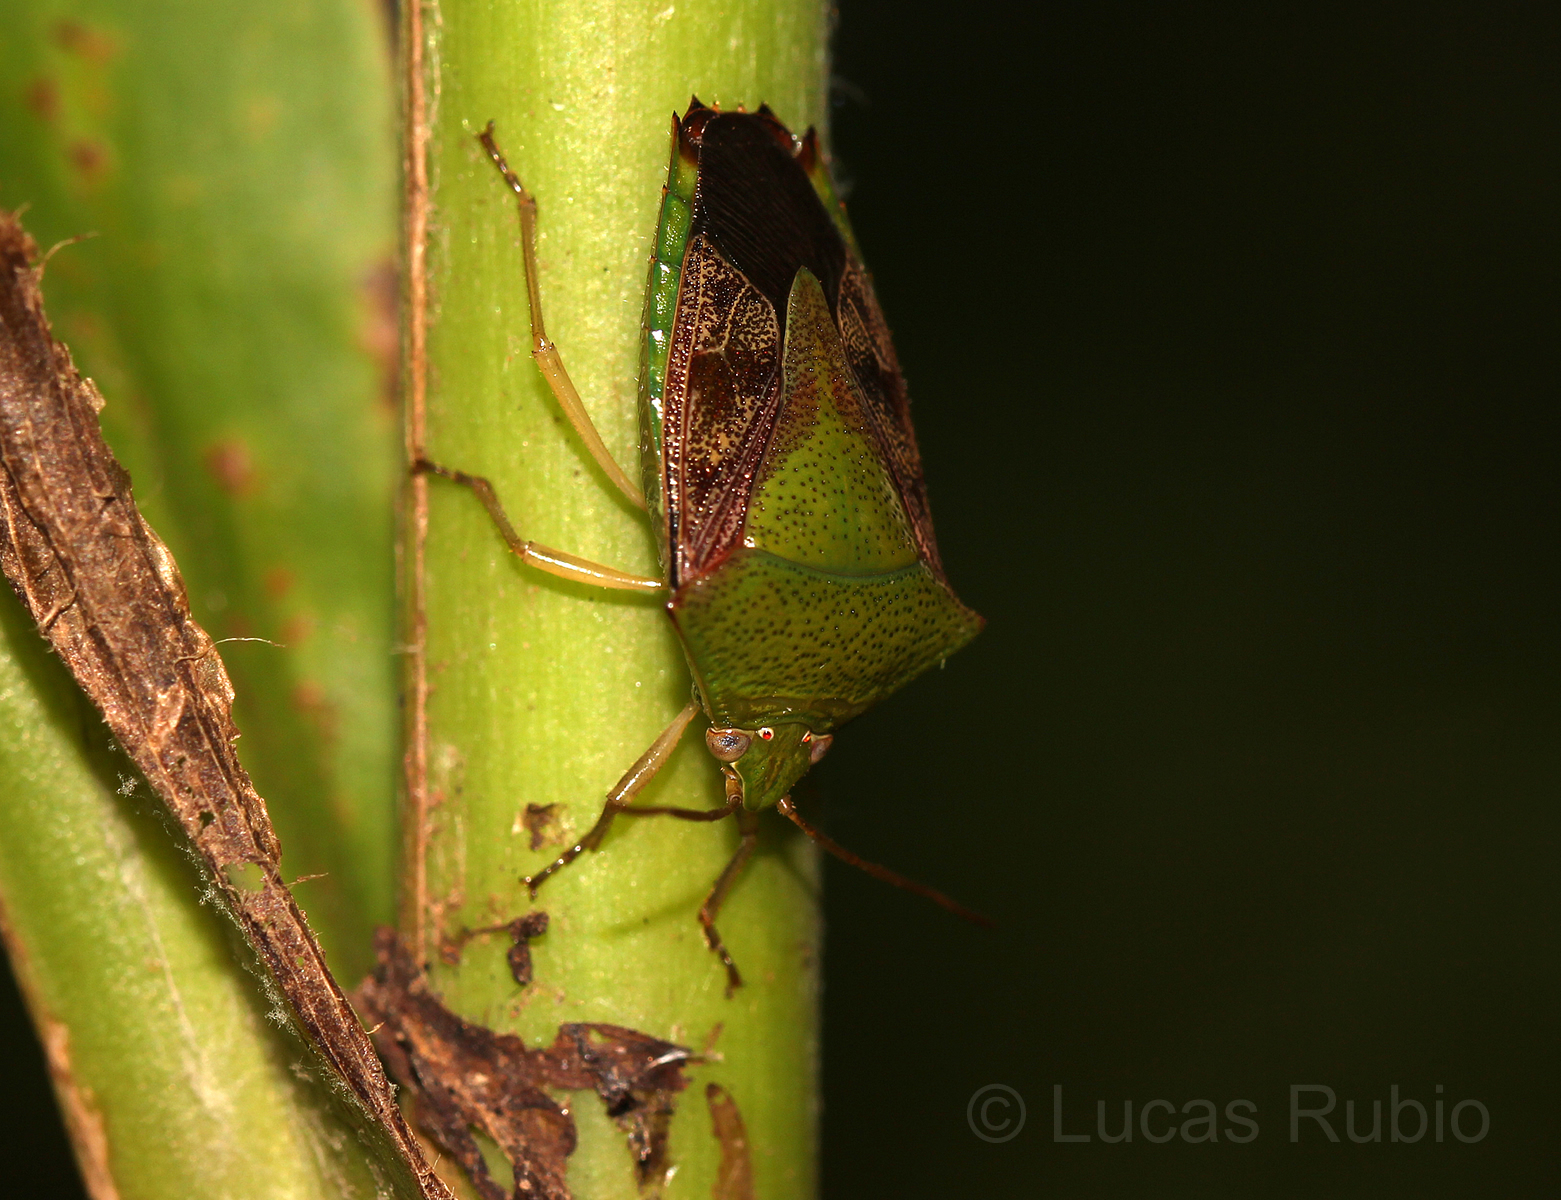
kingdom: Animalia
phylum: Arthropoda
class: Insecta
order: Hemiptera
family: Pentatomidae
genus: Hypoxys
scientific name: Hypoxys subrastratus
